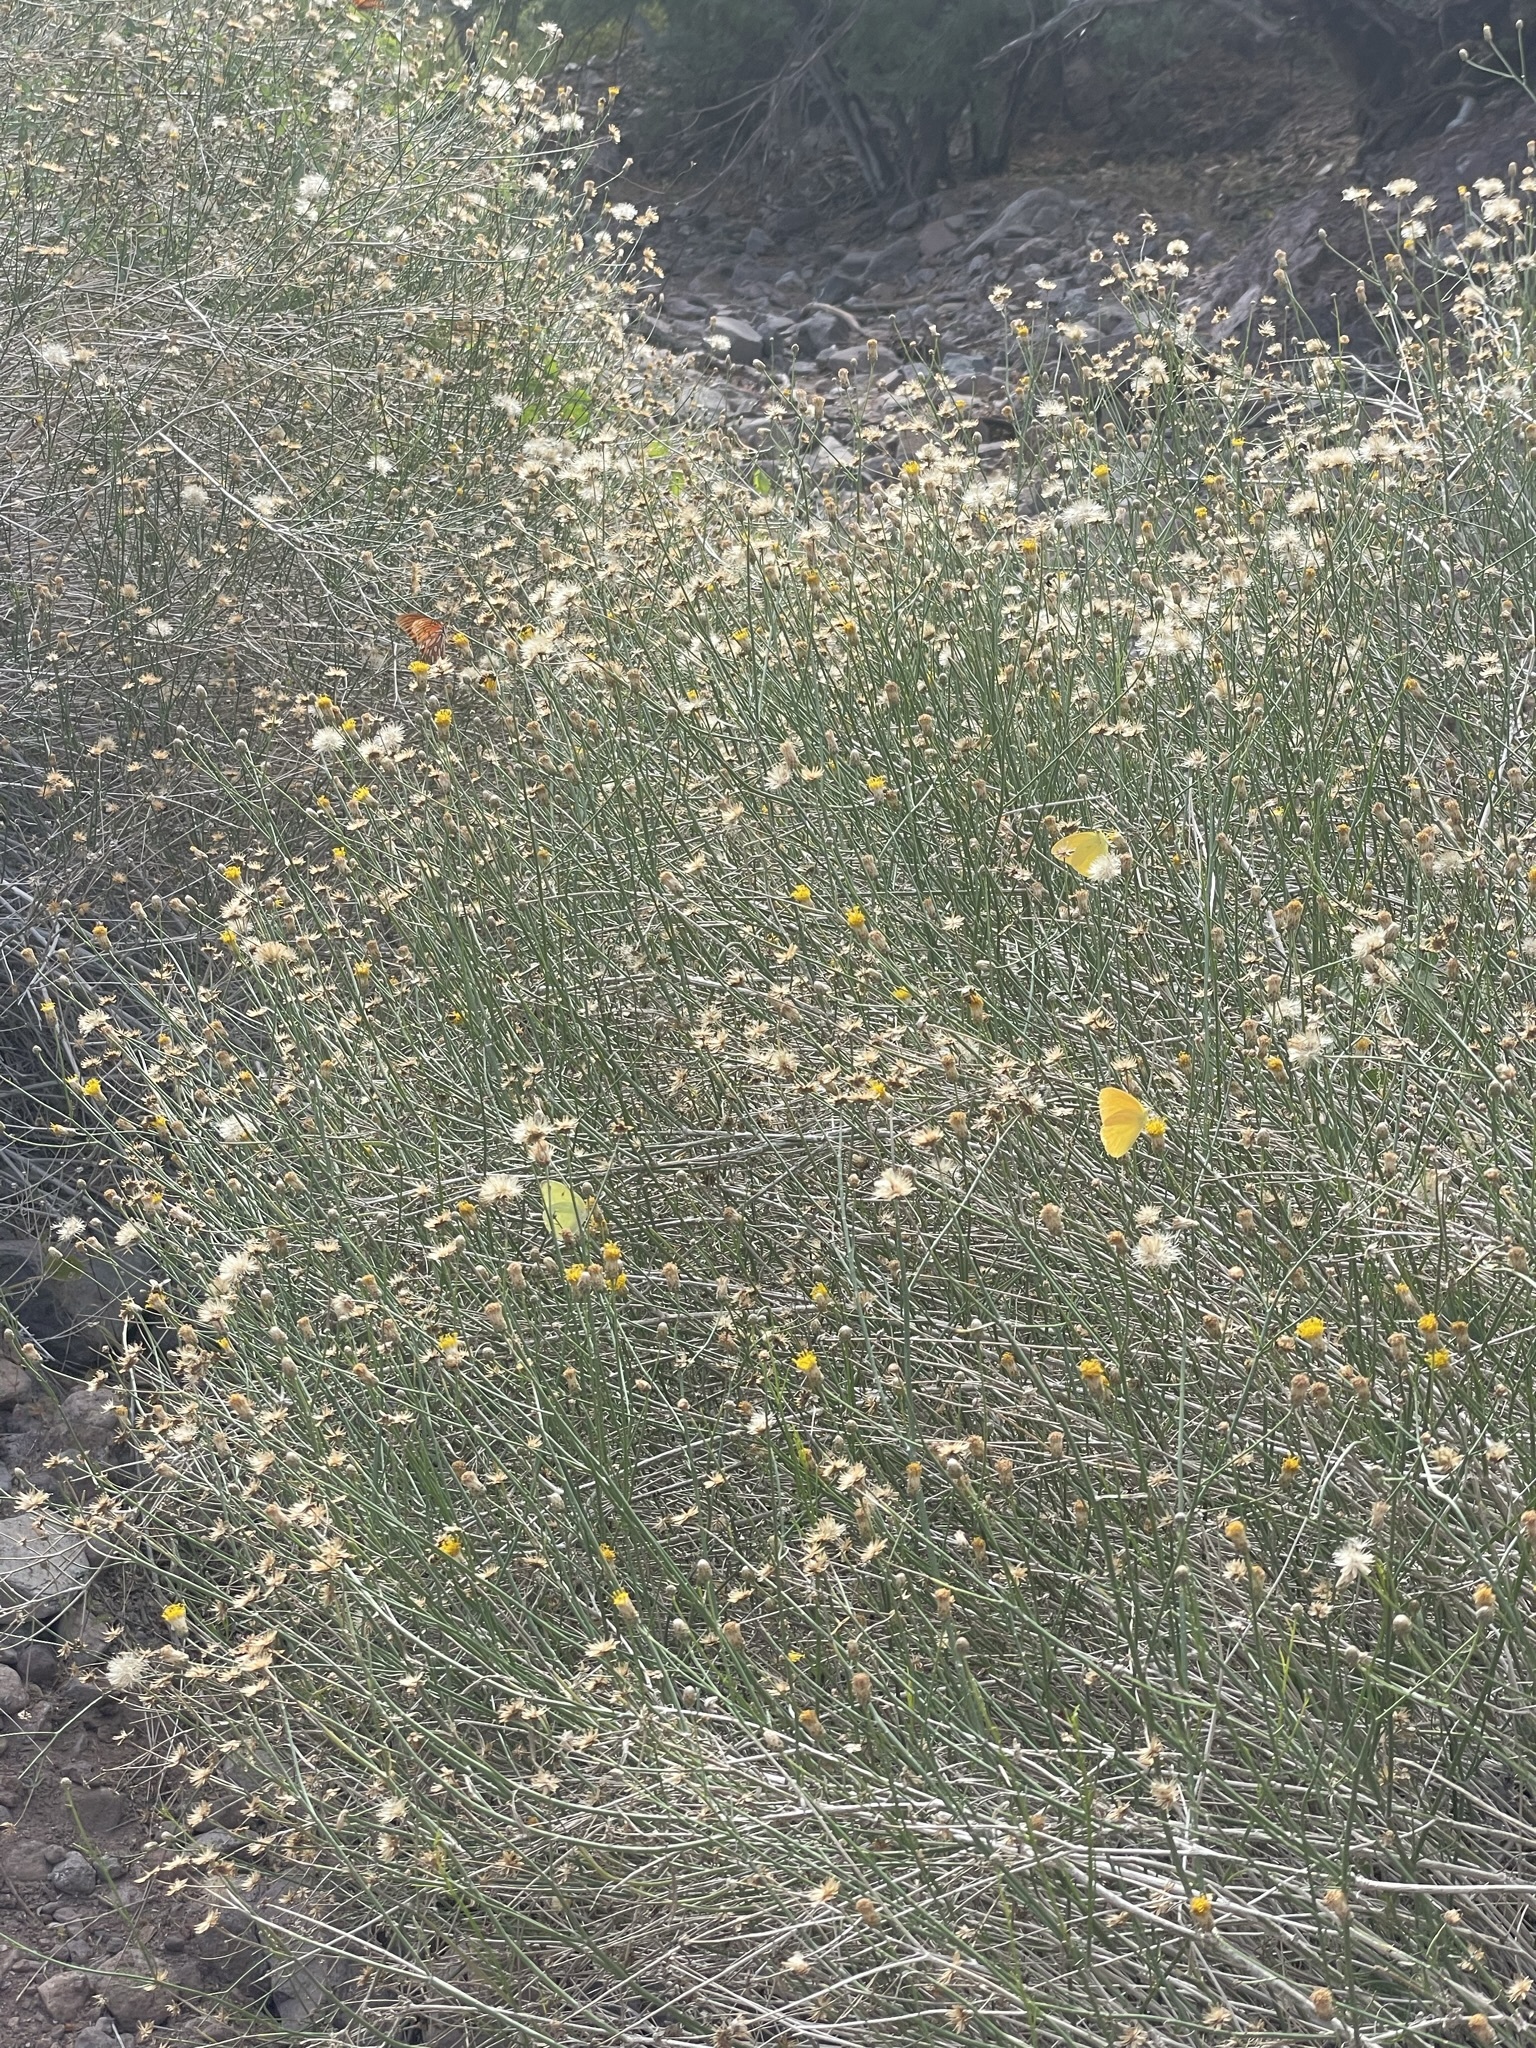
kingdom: Animalia
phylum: Arthropoda
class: Insecta
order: Lepidoptera
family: Pieridae
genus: Phoebis
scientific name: Phoebis agarithe
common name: Large orange sulphur
